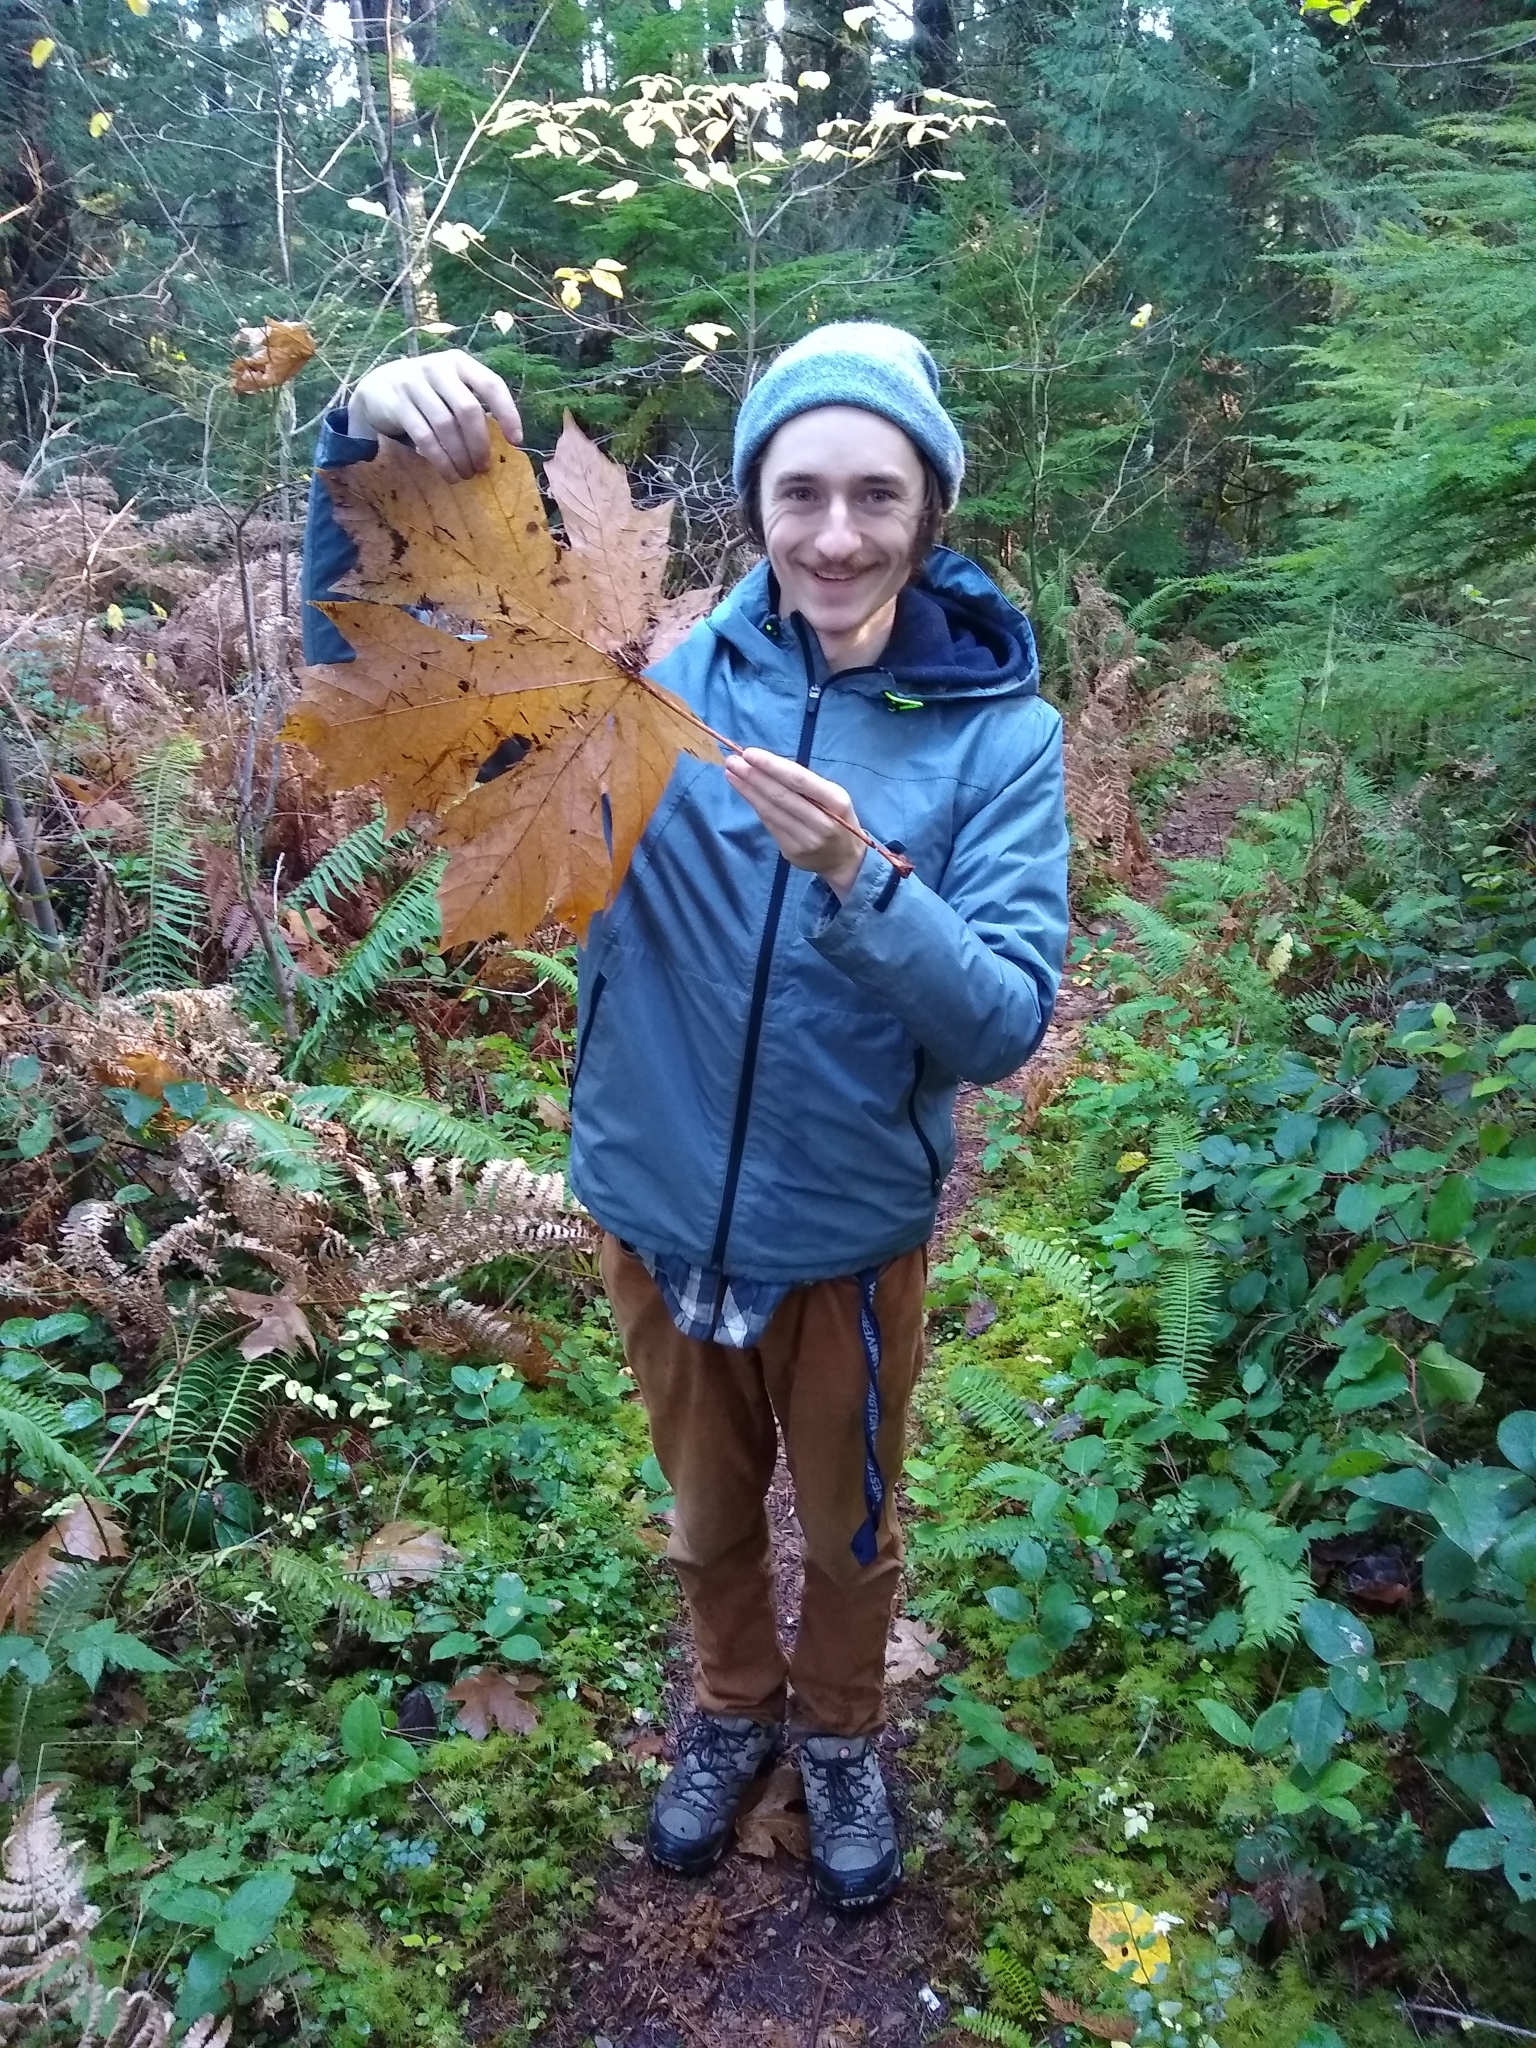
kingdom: Plantae
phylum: Tracheophyta
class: Magnoliopsida
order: Sapindales
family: Sapindaceae
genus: Acer
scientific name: Acer macrophyllum
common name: Oregon maple
